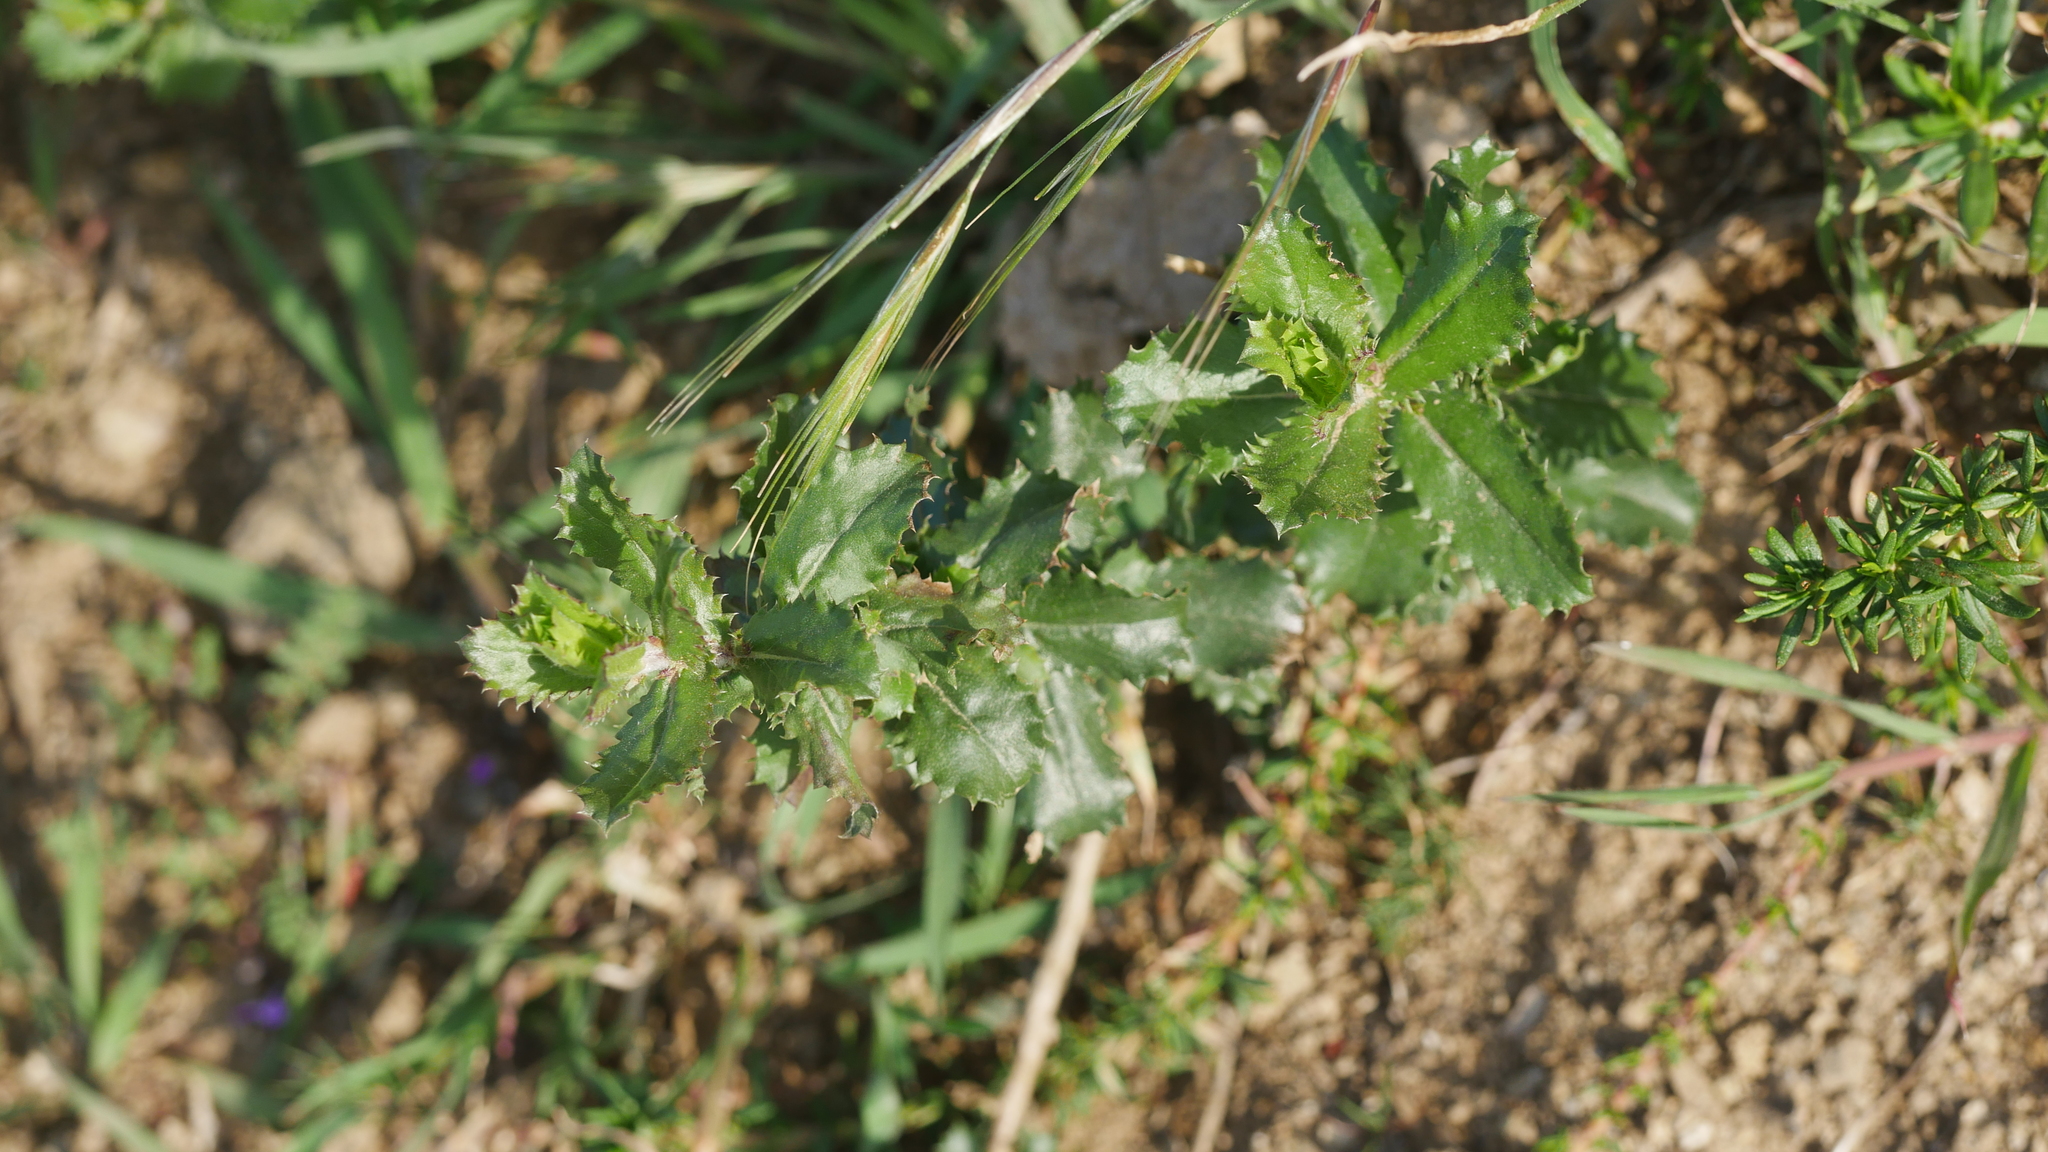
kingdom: Plantae
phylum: Tracheophyta
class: Magnoliopsida
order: Asterales
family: Asteraceae
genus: Hazardia
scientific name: Hazardia squarrosa
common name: Saw-tooth goldenbush
